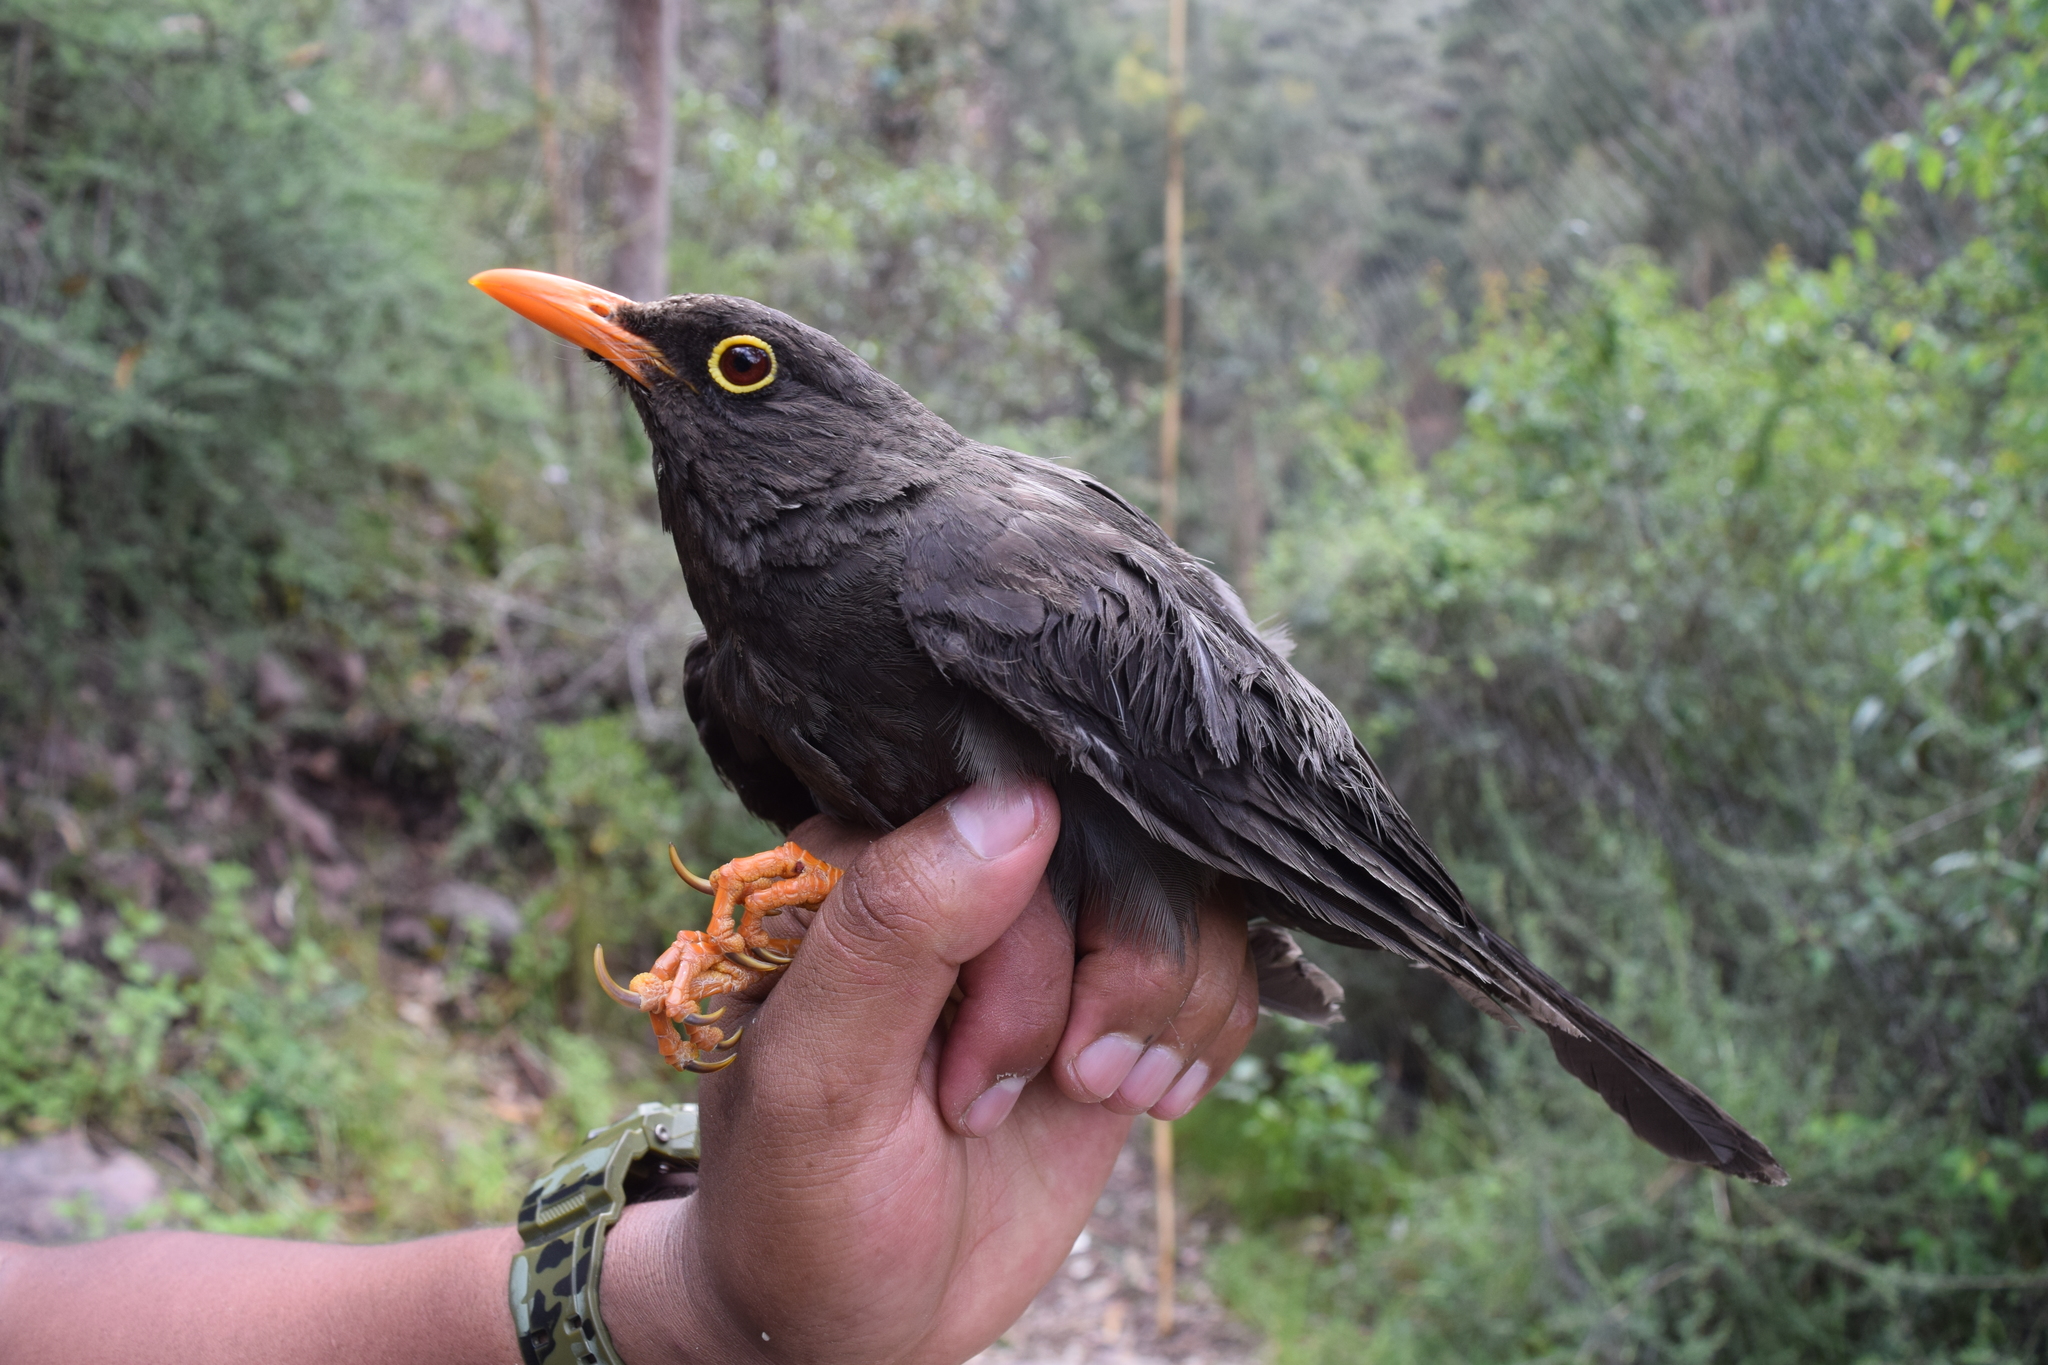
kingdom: Animalia
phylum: Chordata
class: Aves
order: Passeriformes
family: Turdidae
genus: Turdus
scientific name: Turdus fuscater
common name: Great thrush
